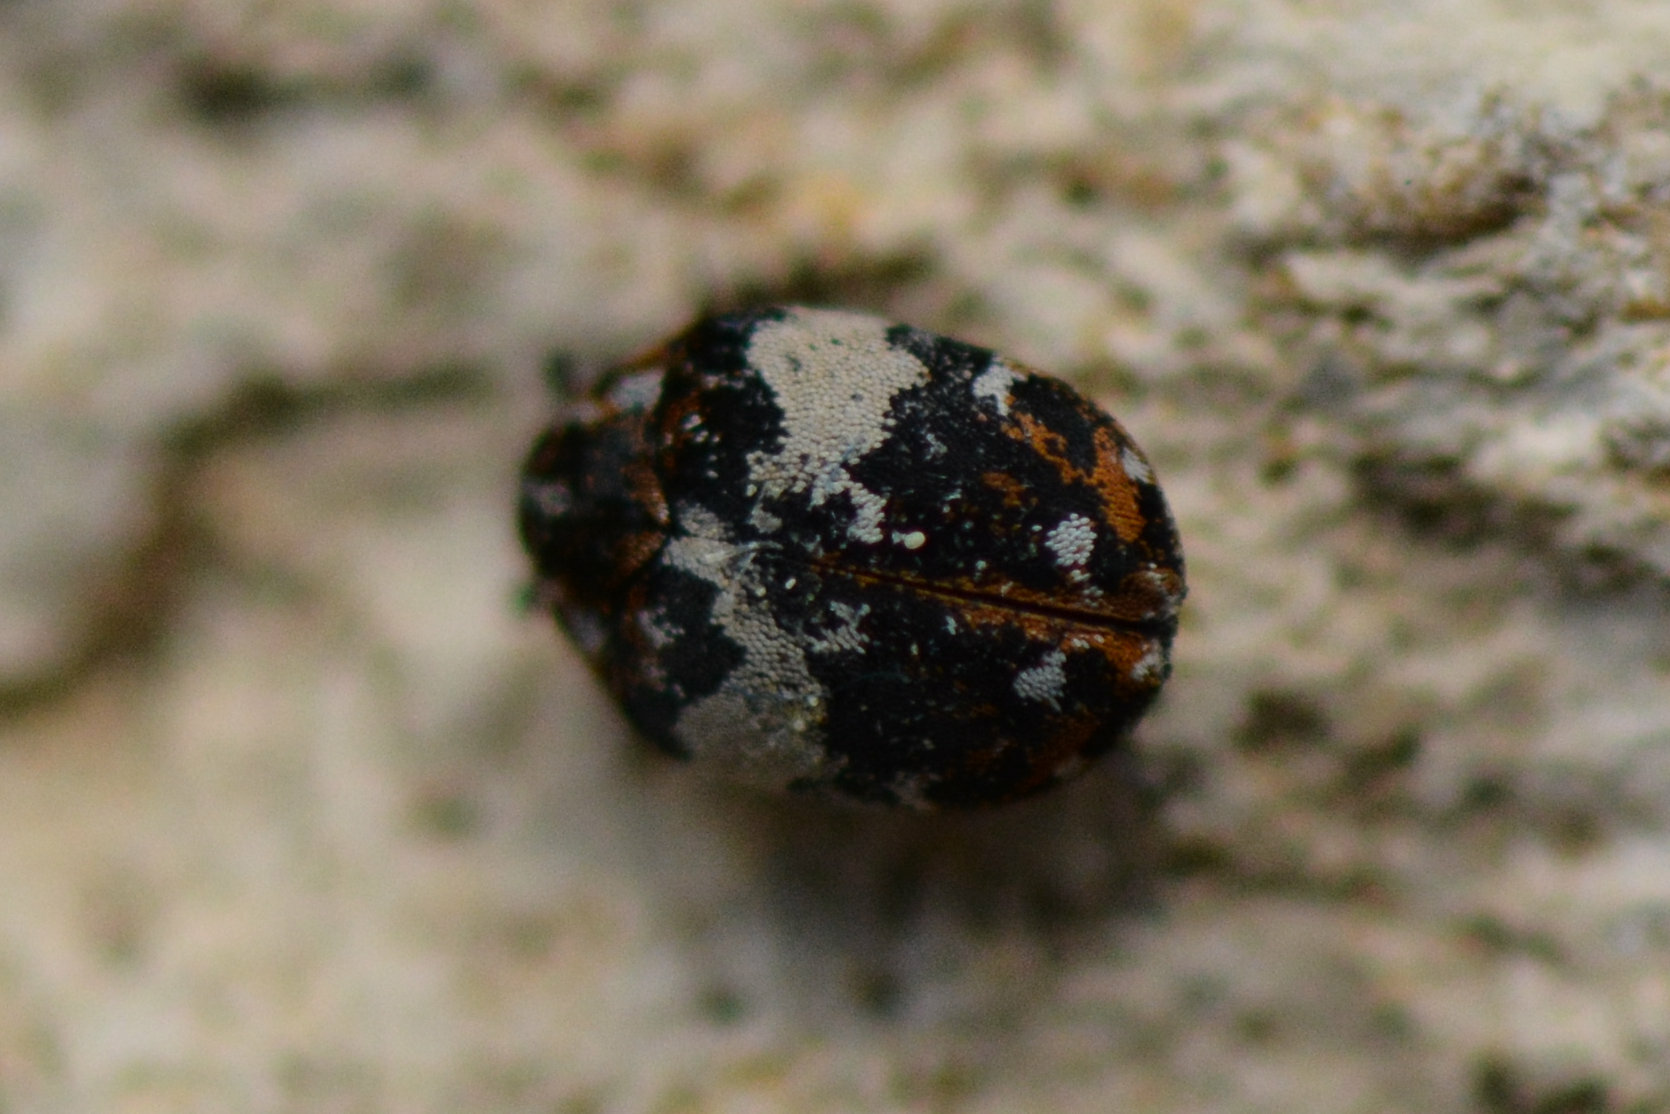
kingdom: Animalia
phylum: Arthropoda
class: Insecta
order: Coleoptera
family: Dermestidae
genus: Anthrenus
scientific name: Anthrenus pimpinellae
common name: Dermestid beetle
